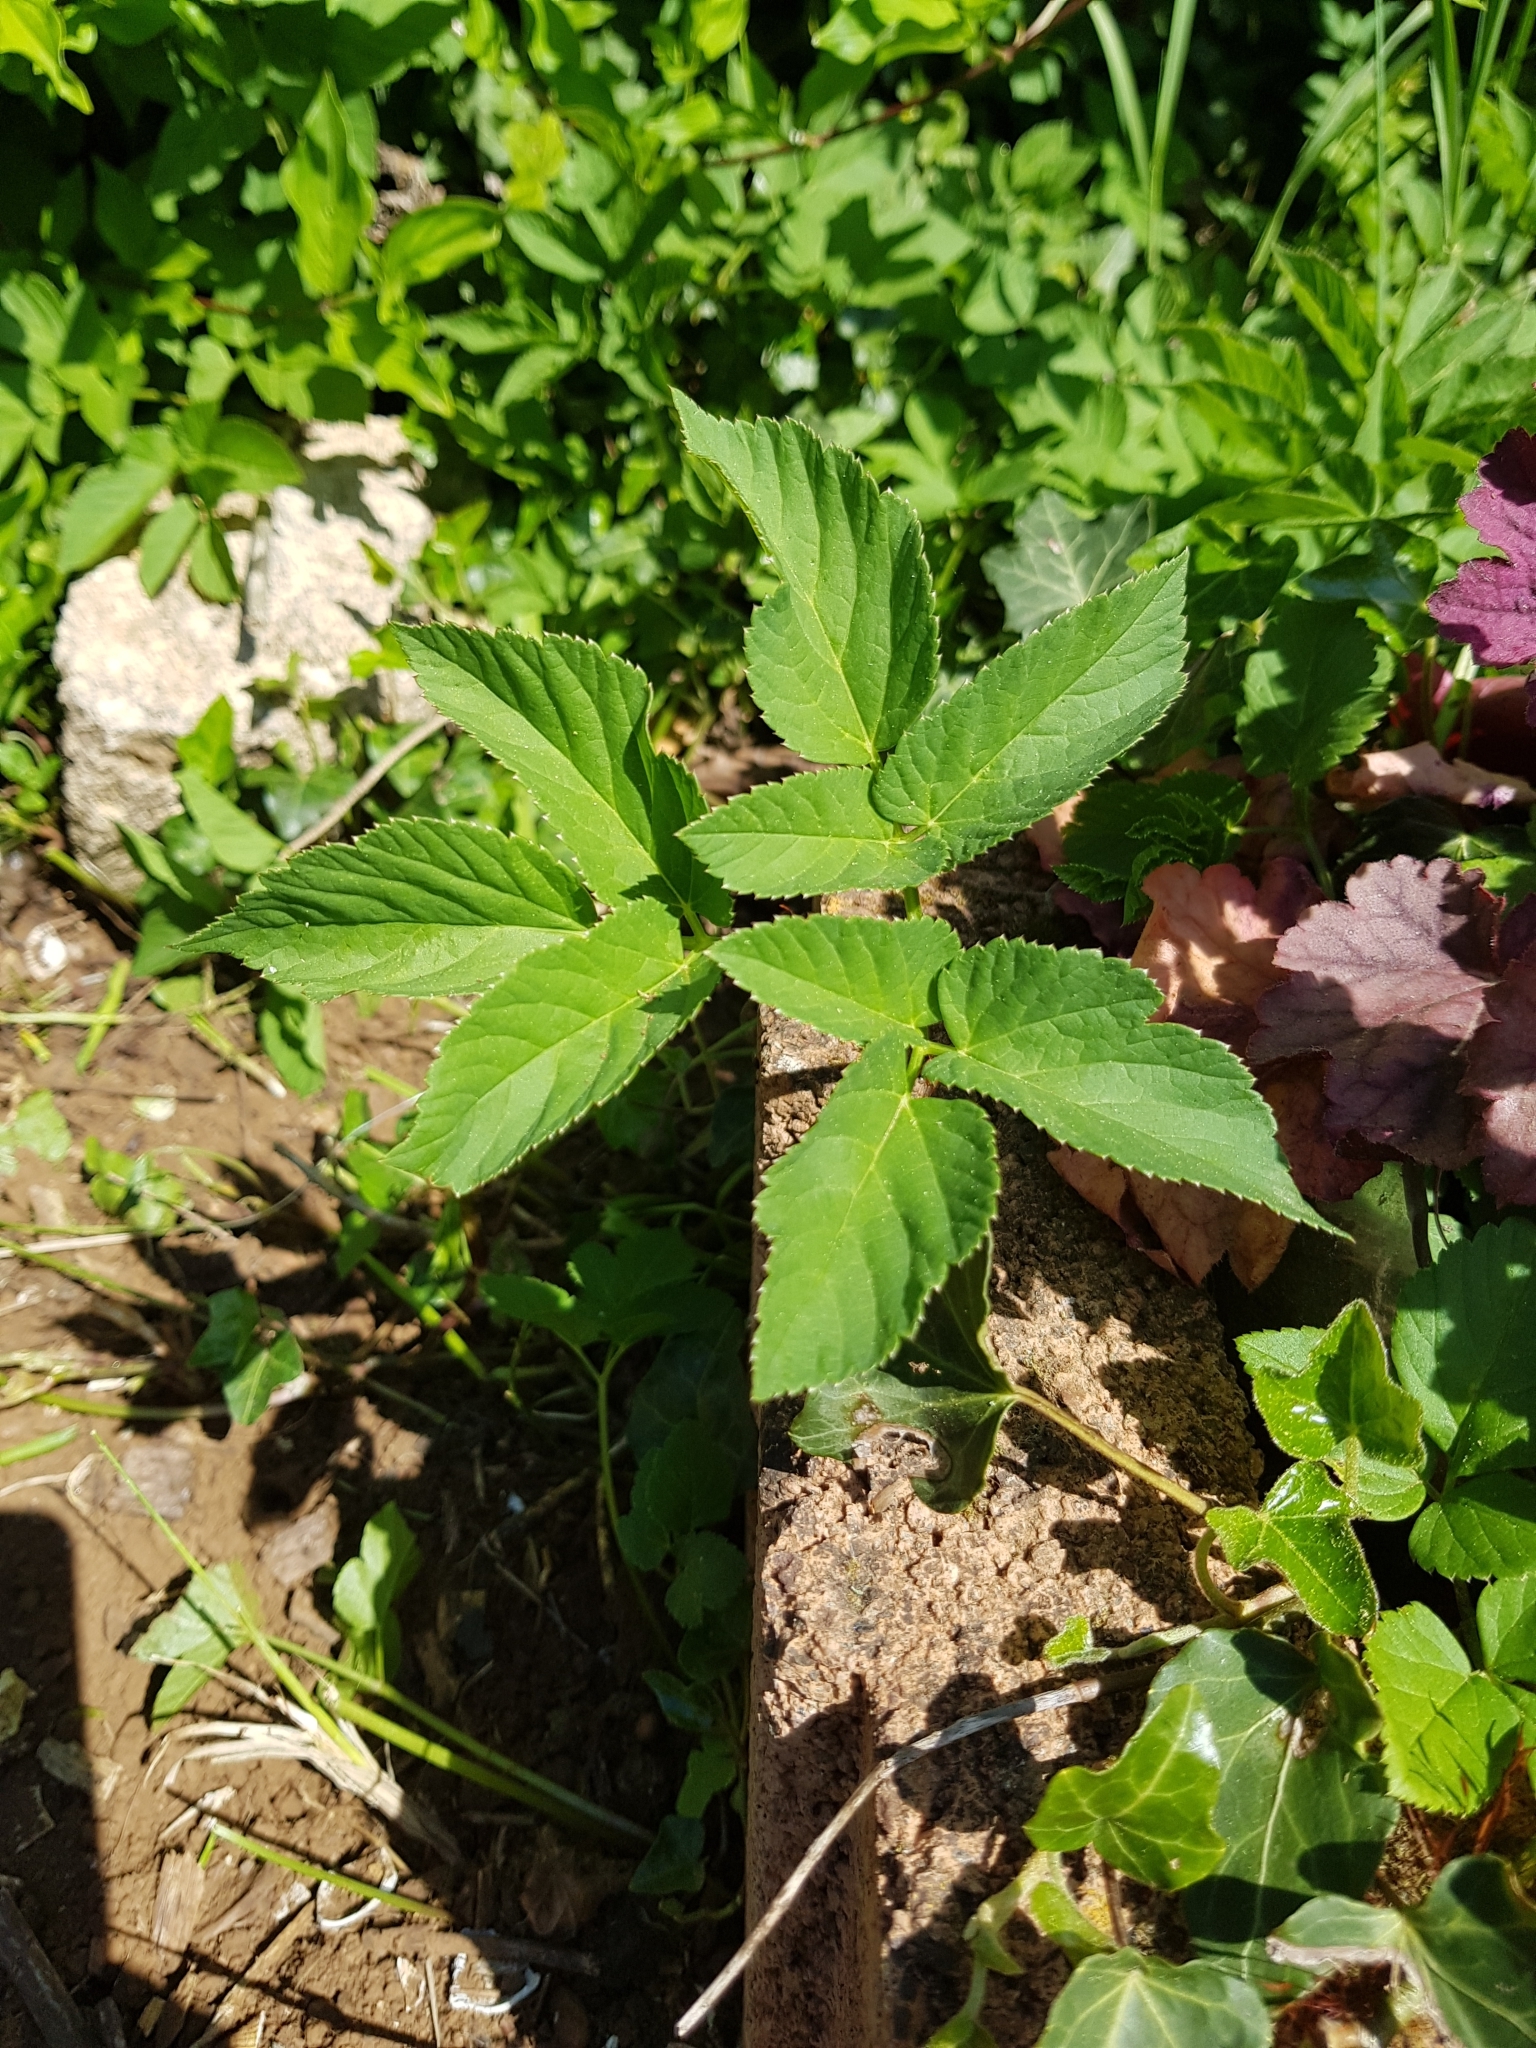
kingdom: Plantae
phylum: Tracheophyta
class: Magnoliopsida
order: Apiales
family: Apiaceae
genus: Aegopodium
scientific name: Aegopodium podagraria
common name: Ground-elder
